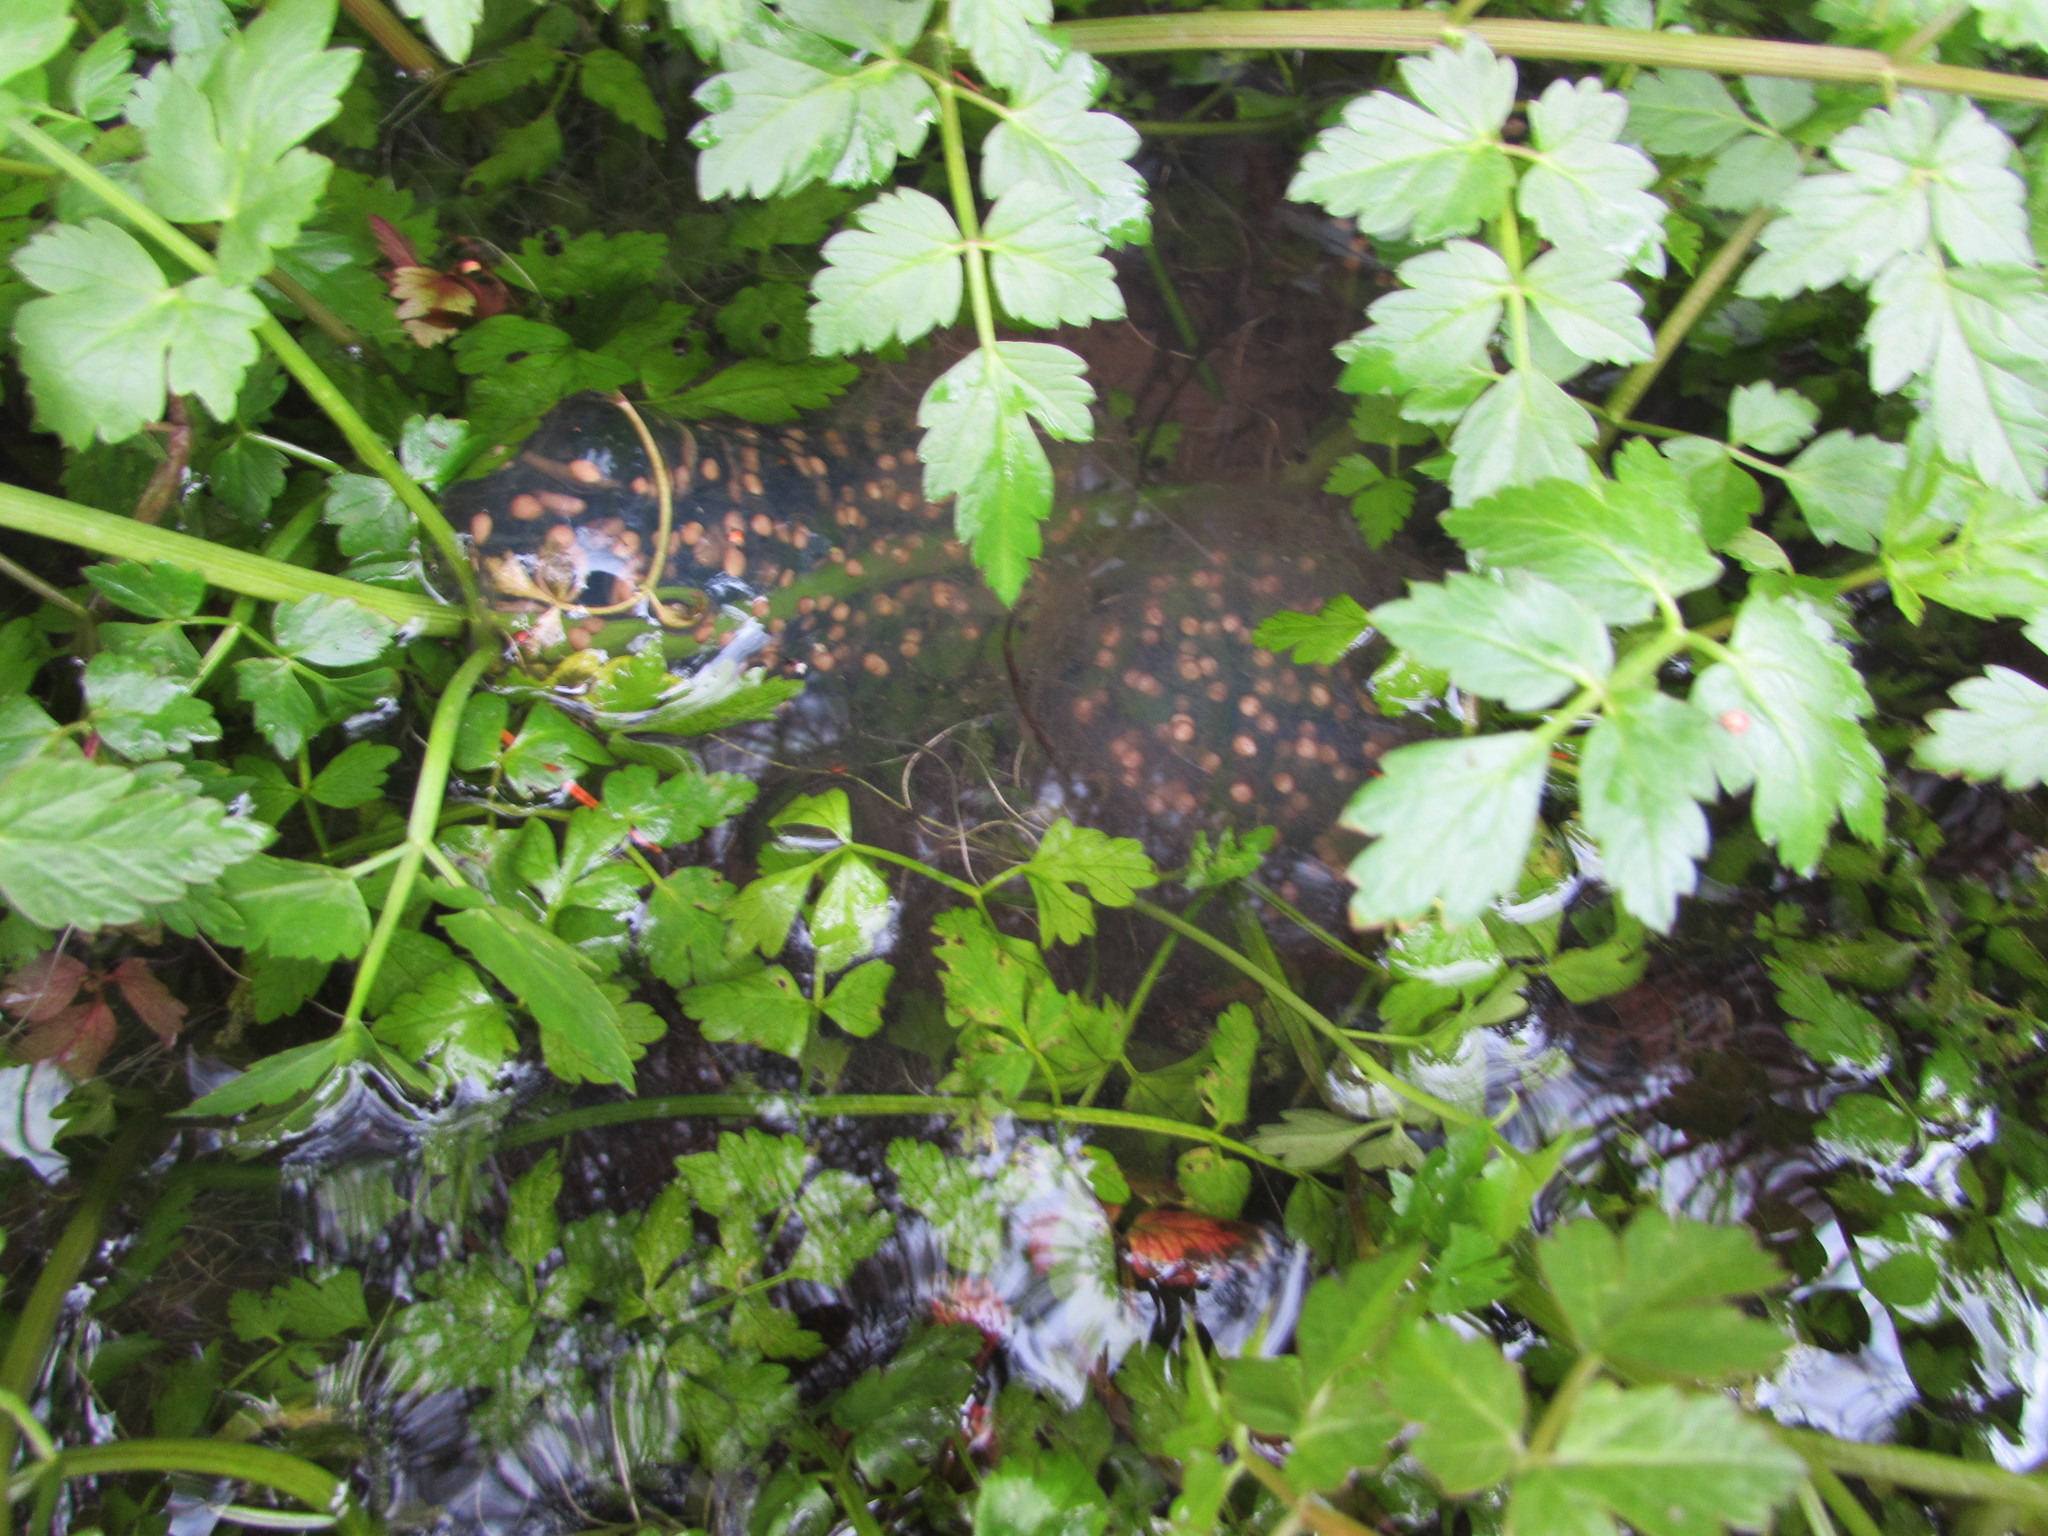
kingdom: Animalia
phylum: Chordata
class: Amphibia
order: Caudata
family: Ambystomatidae
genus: Ambystoma
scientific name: Ambystoma gracile
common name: Northwestern salamander
